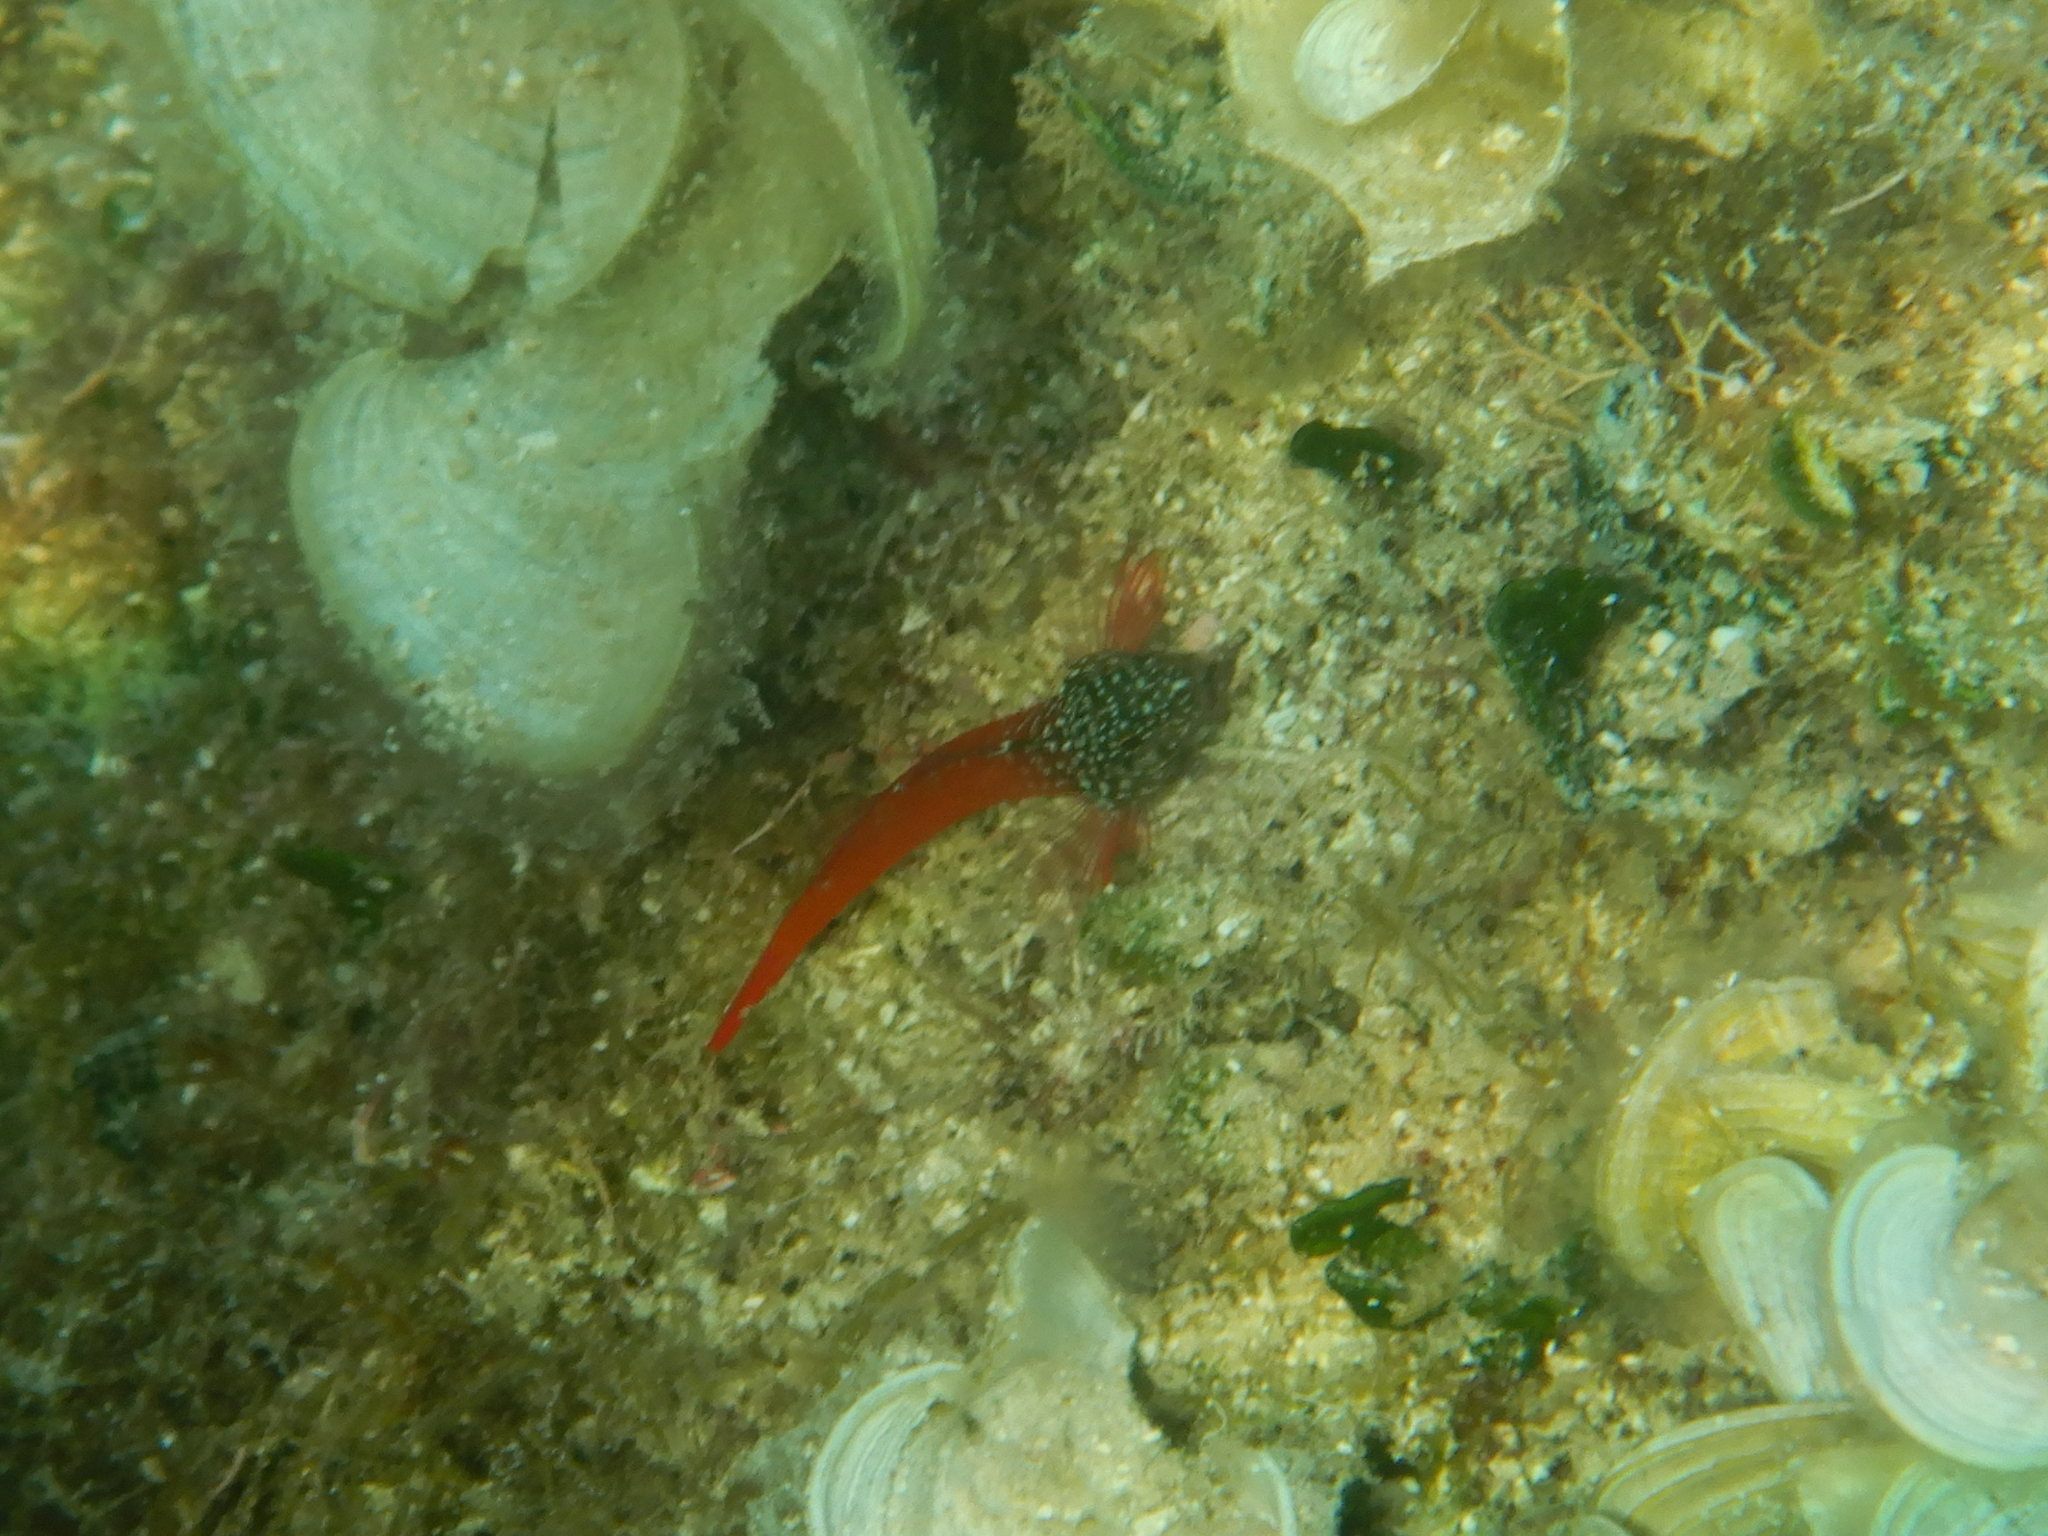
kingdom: Animalia
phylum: Chordata
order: Perciformes
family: Tripterygiidae
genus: Tripterygion
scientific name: Tripterygion melanurum
